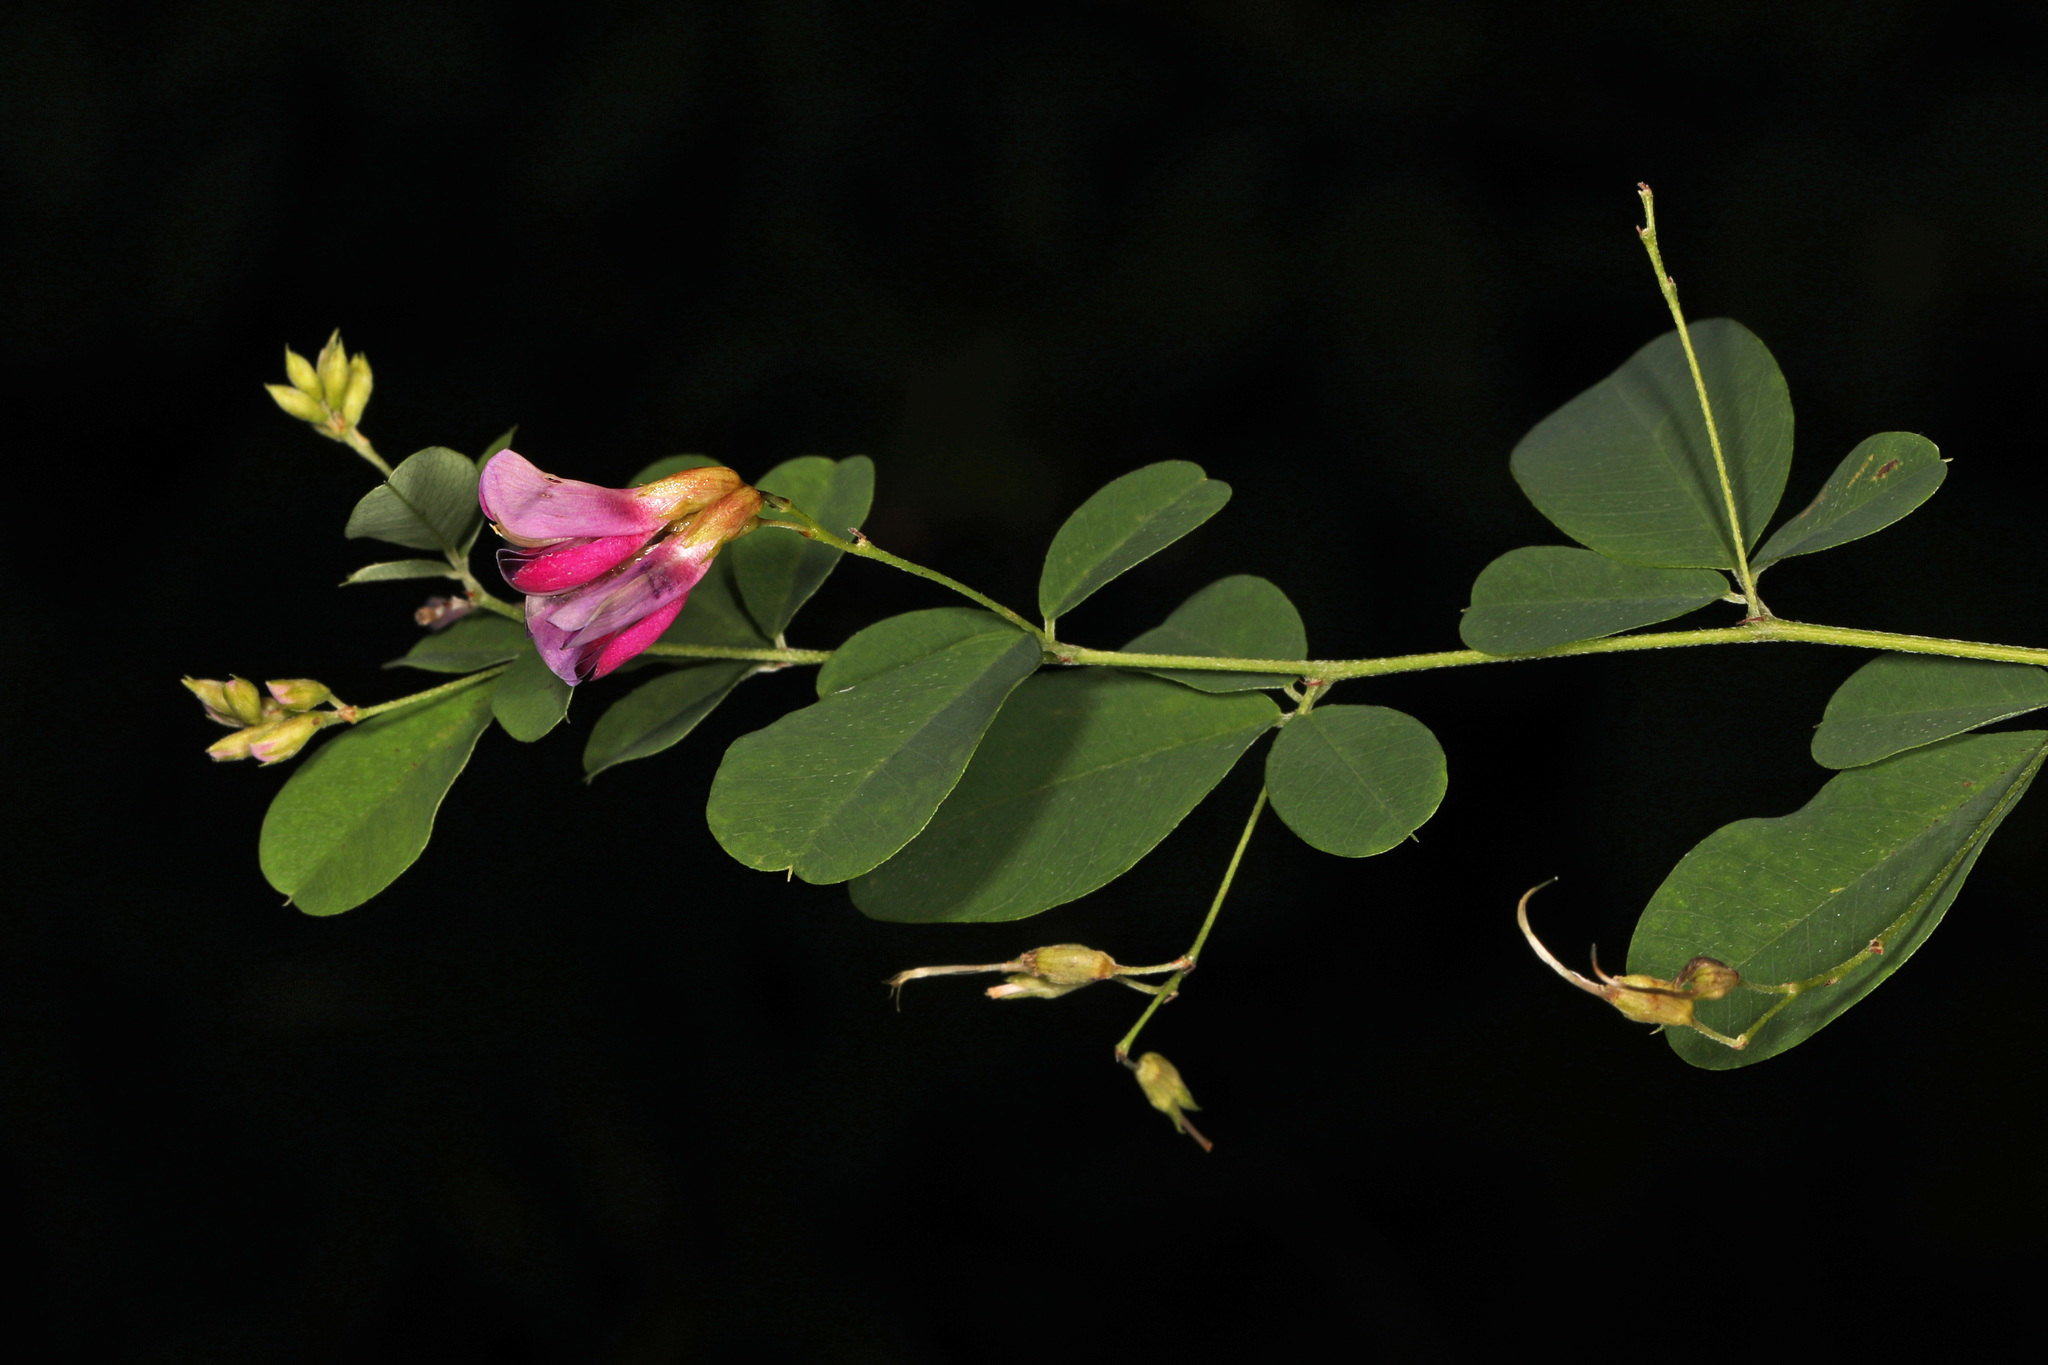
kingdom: Plantae
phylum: Tracheophyta
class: Magnoliopsida
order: Fabales
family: Fabaceae
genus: Lespedeza
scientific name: Lespedeza bicolor
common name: Shrub lespedeza
